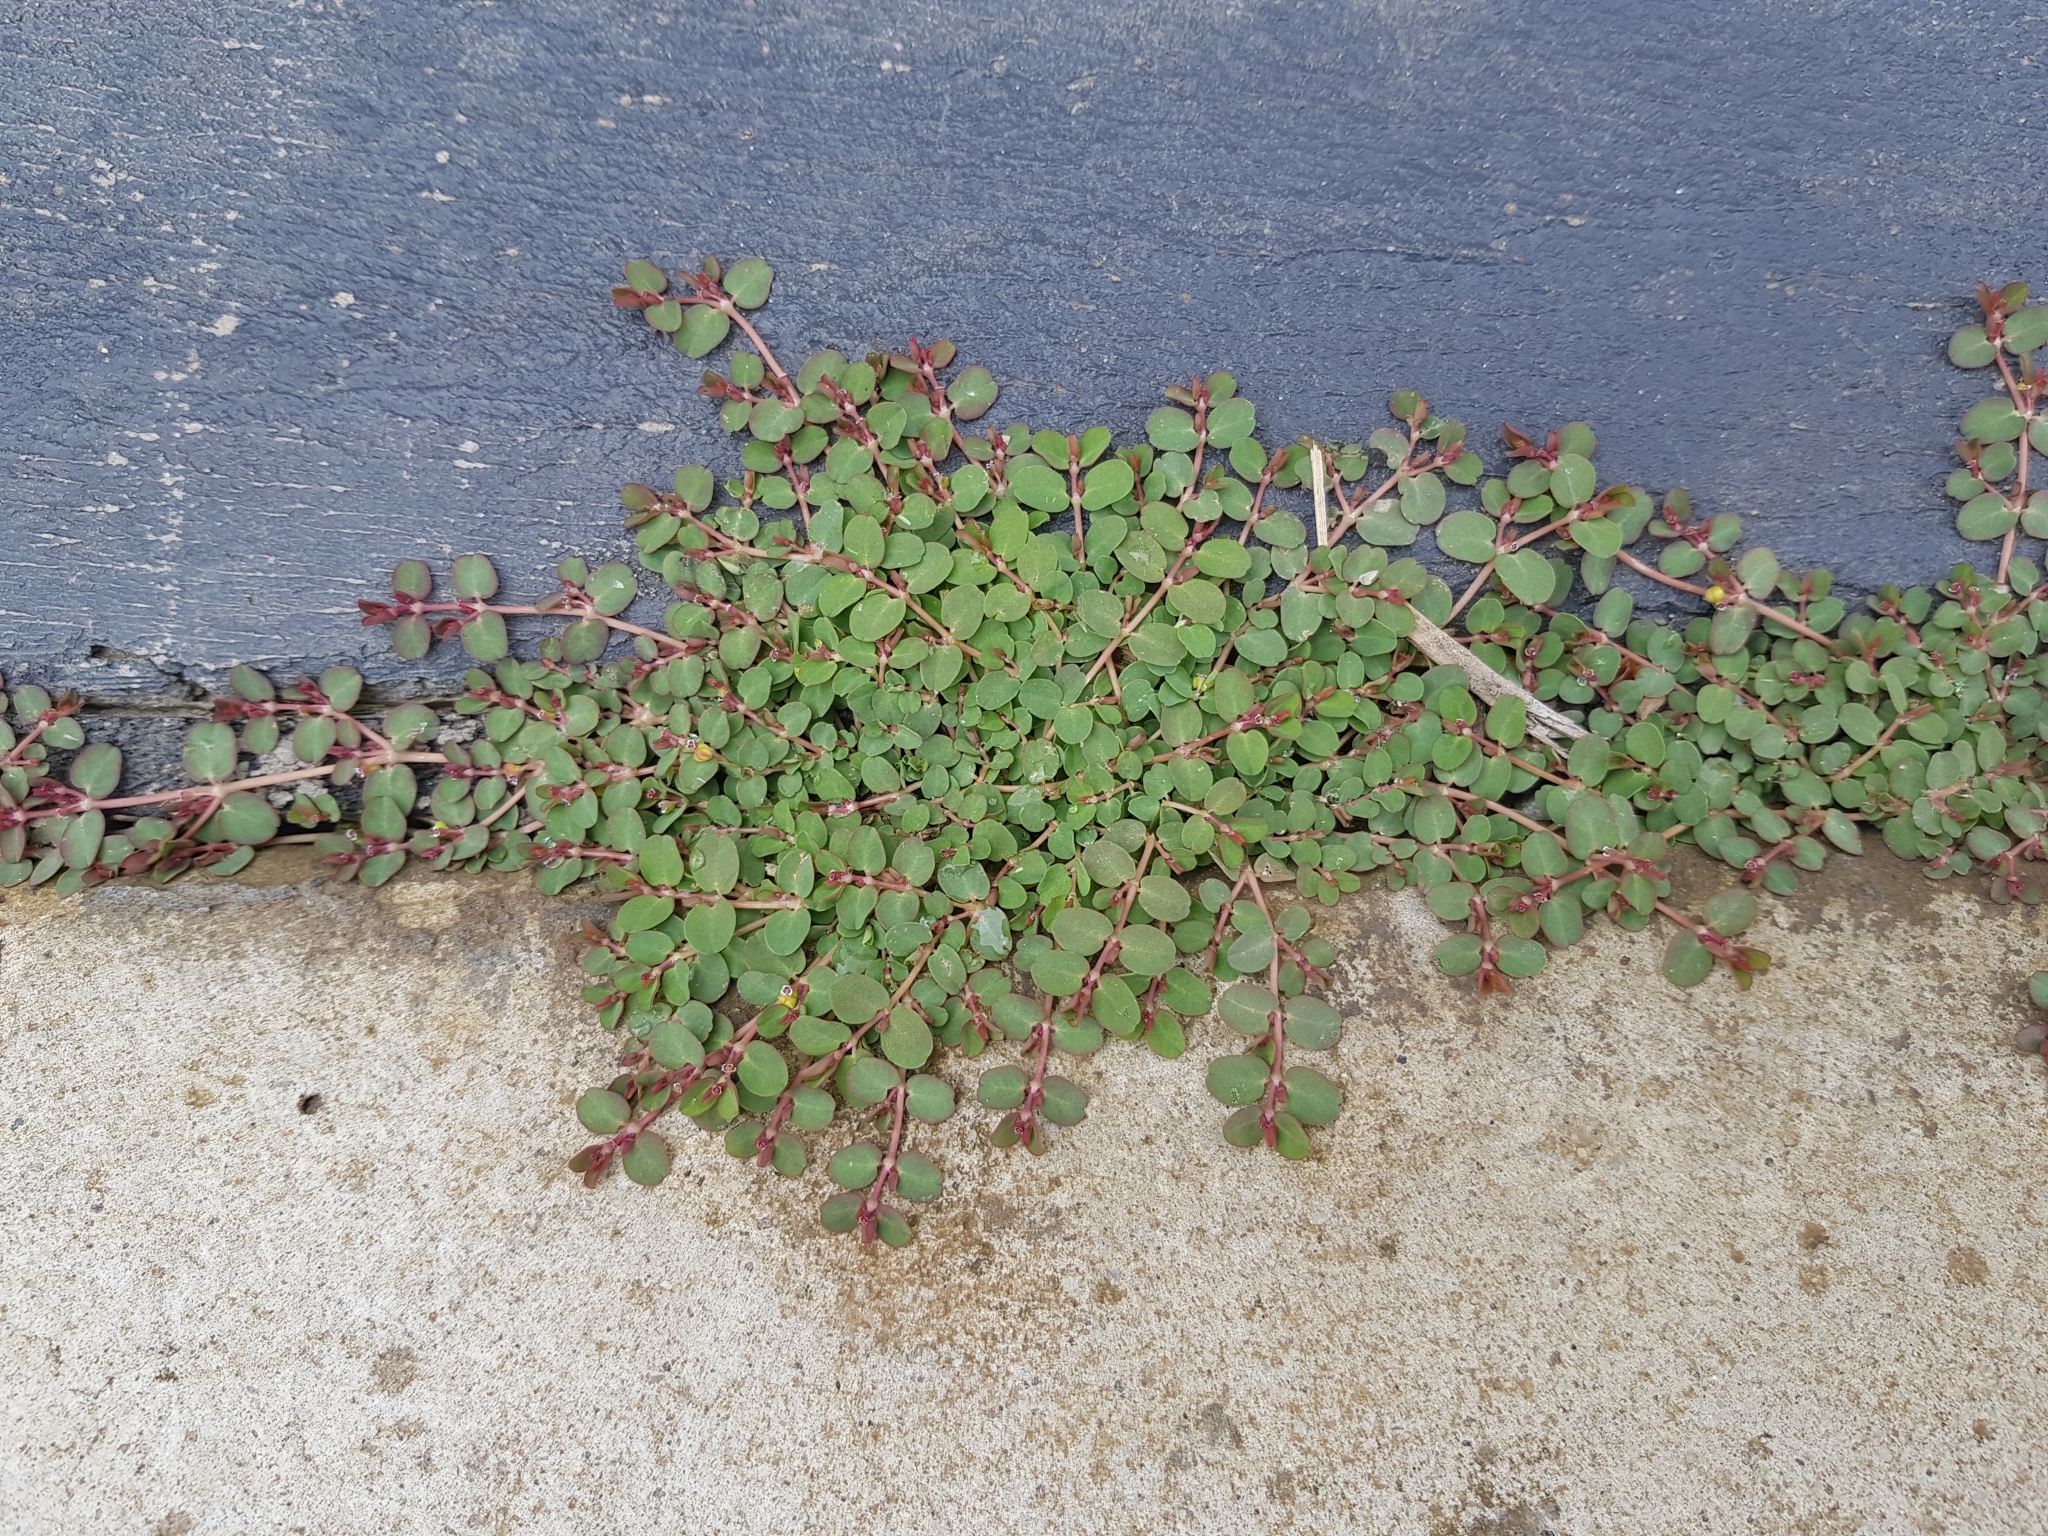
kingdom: Plantae
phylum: Tracheophyta
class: Magnoliopsida
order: Malpighiales
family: Euphorbiaceae
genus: Euphorbia
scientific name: Euphorbia serpens
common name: Matted sandmat
